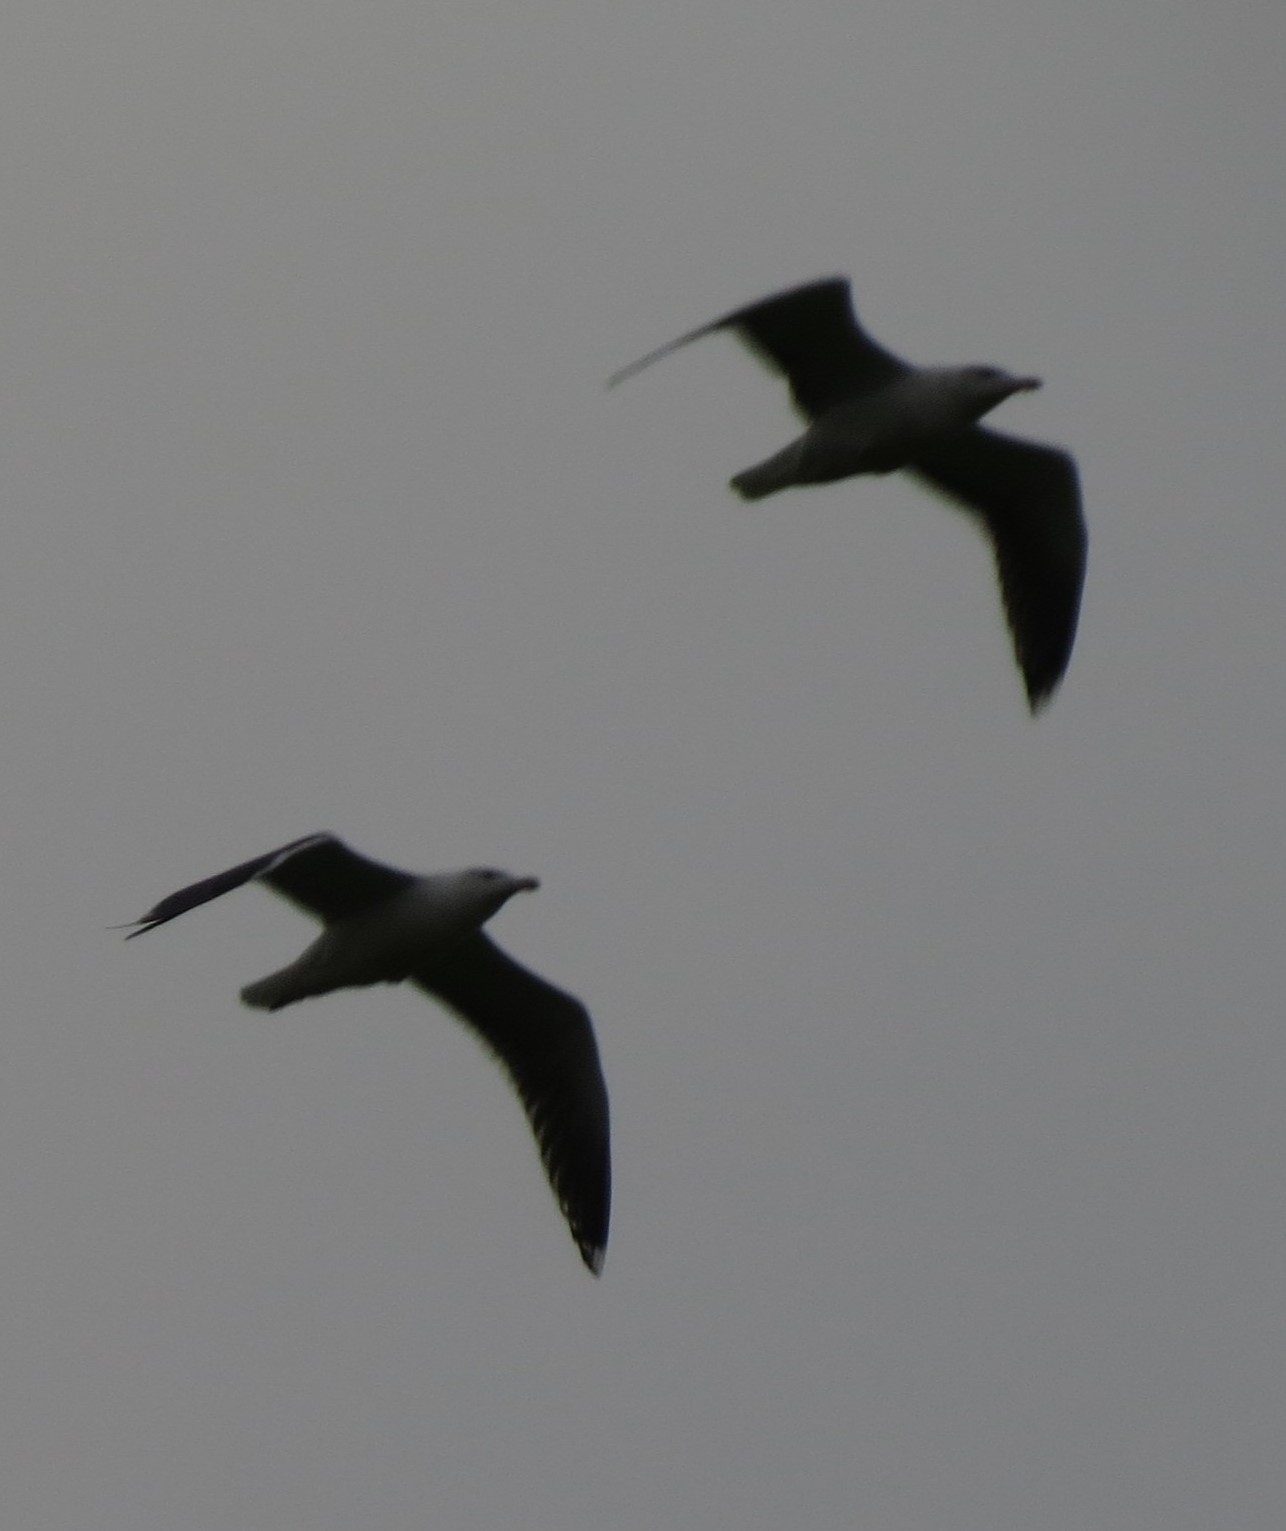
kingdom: Animalia
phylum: Chordata
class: Aves
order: Charadriiformes
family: Laridae
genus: Larus
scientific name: Larus fuscus
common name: Lesser black-backed gull
